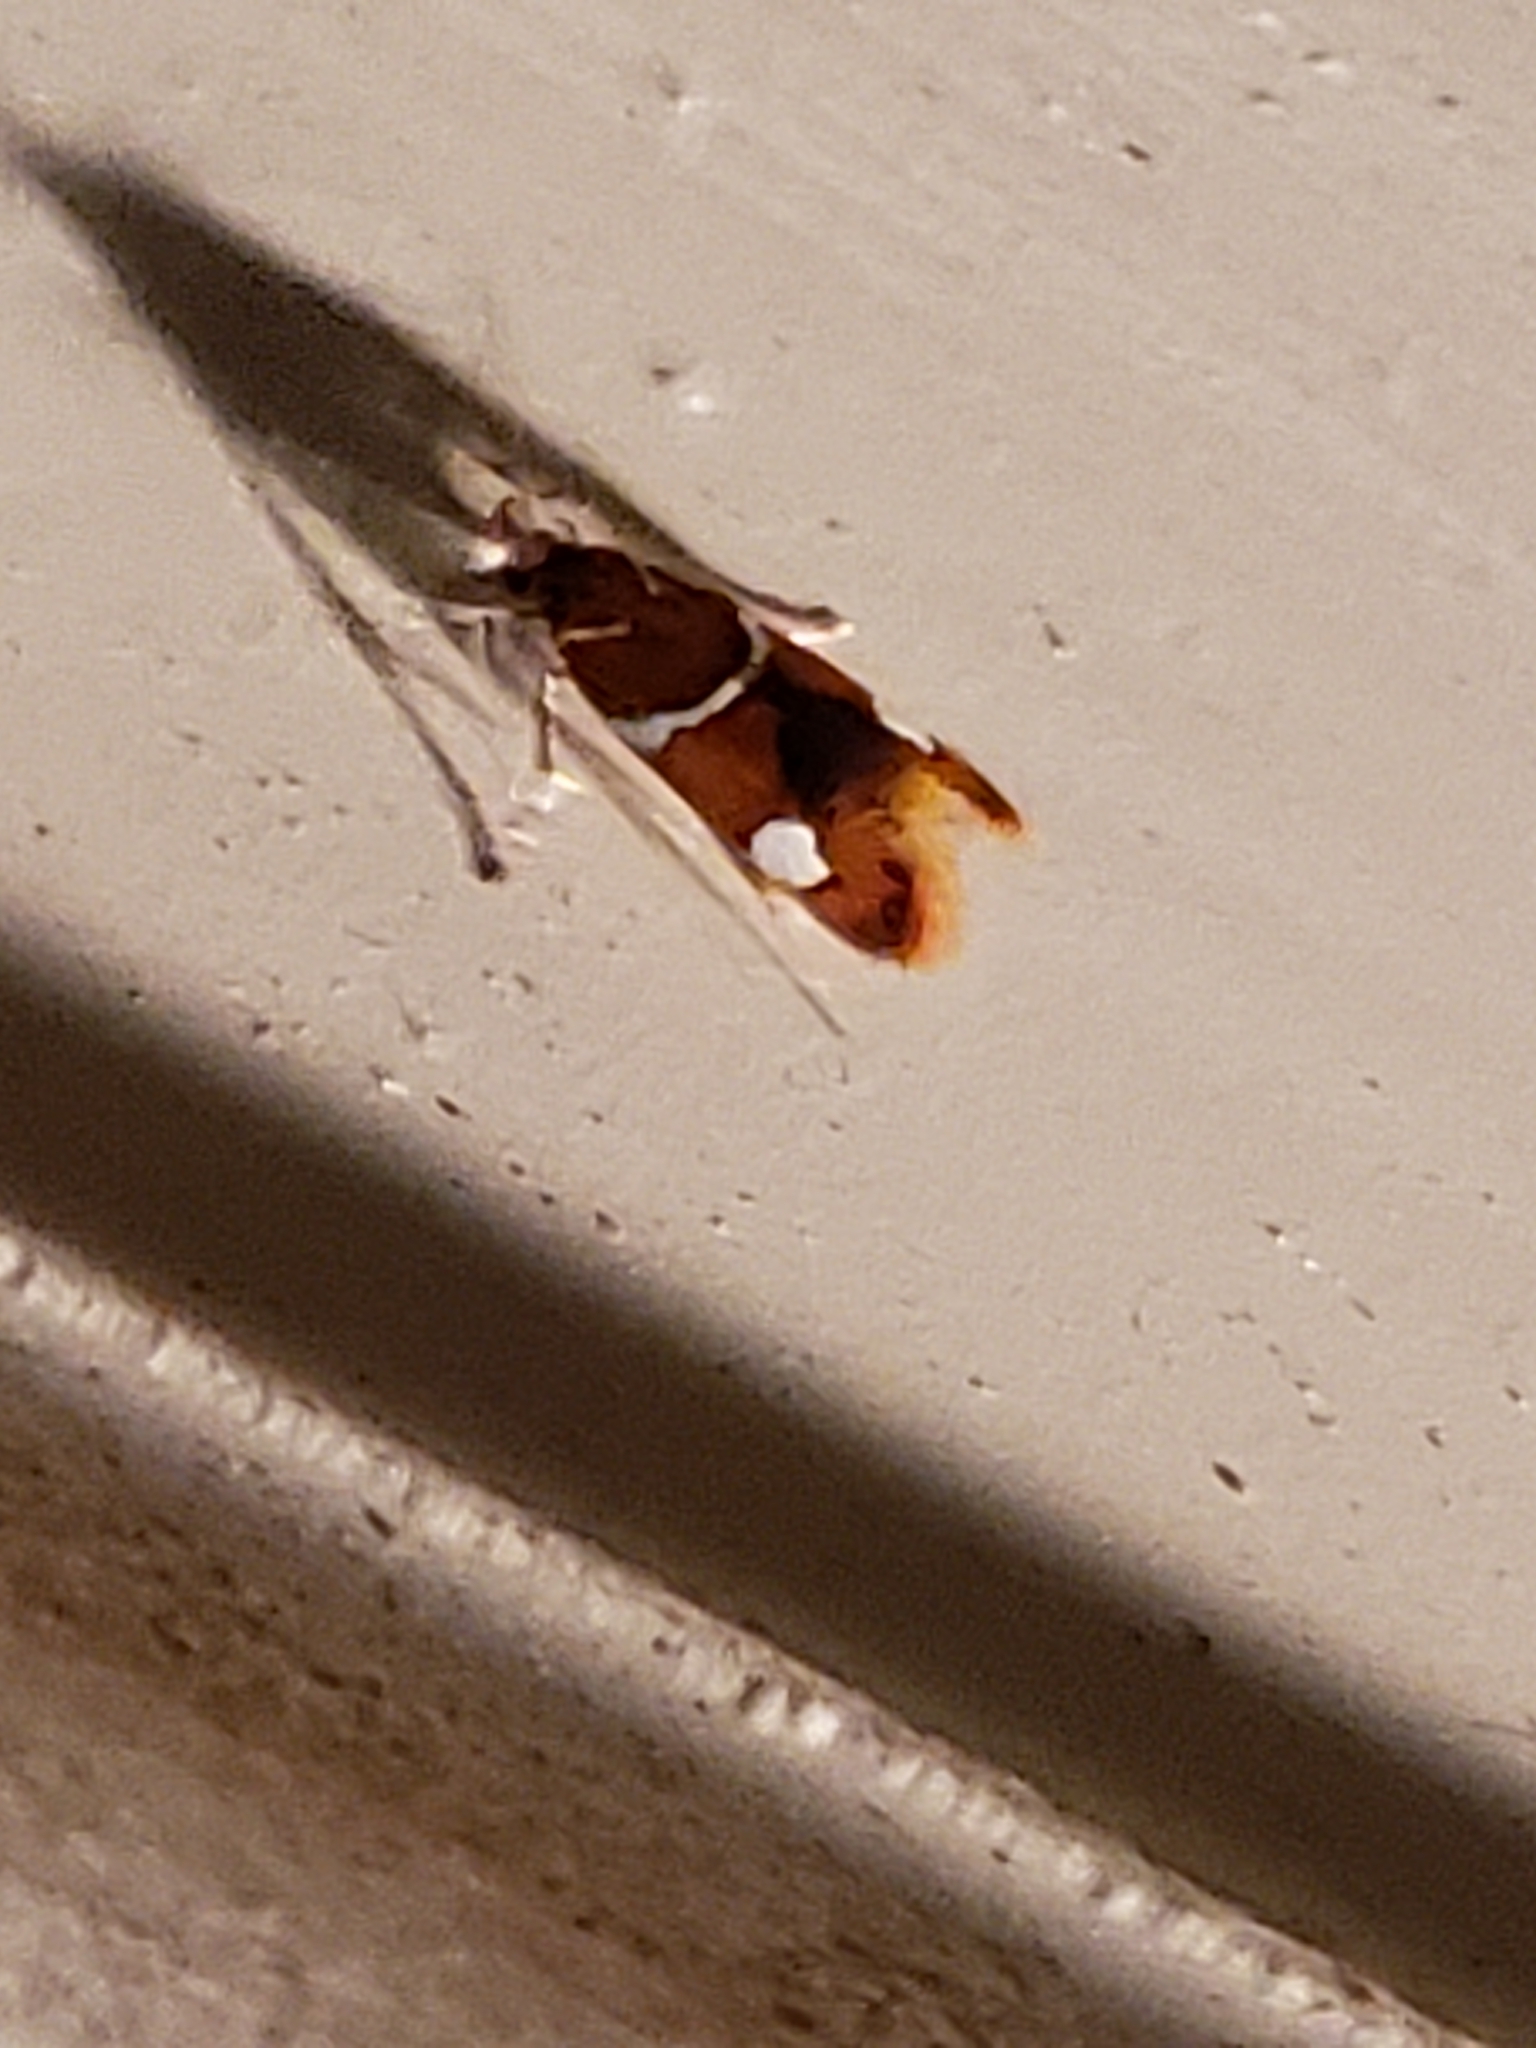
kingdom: Animalia
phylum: Arthropoda
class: Insecta
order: Lepidoptera
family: Oecophoridae
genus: Promalactis
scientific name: Promalactis suzukiella
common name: Moth
